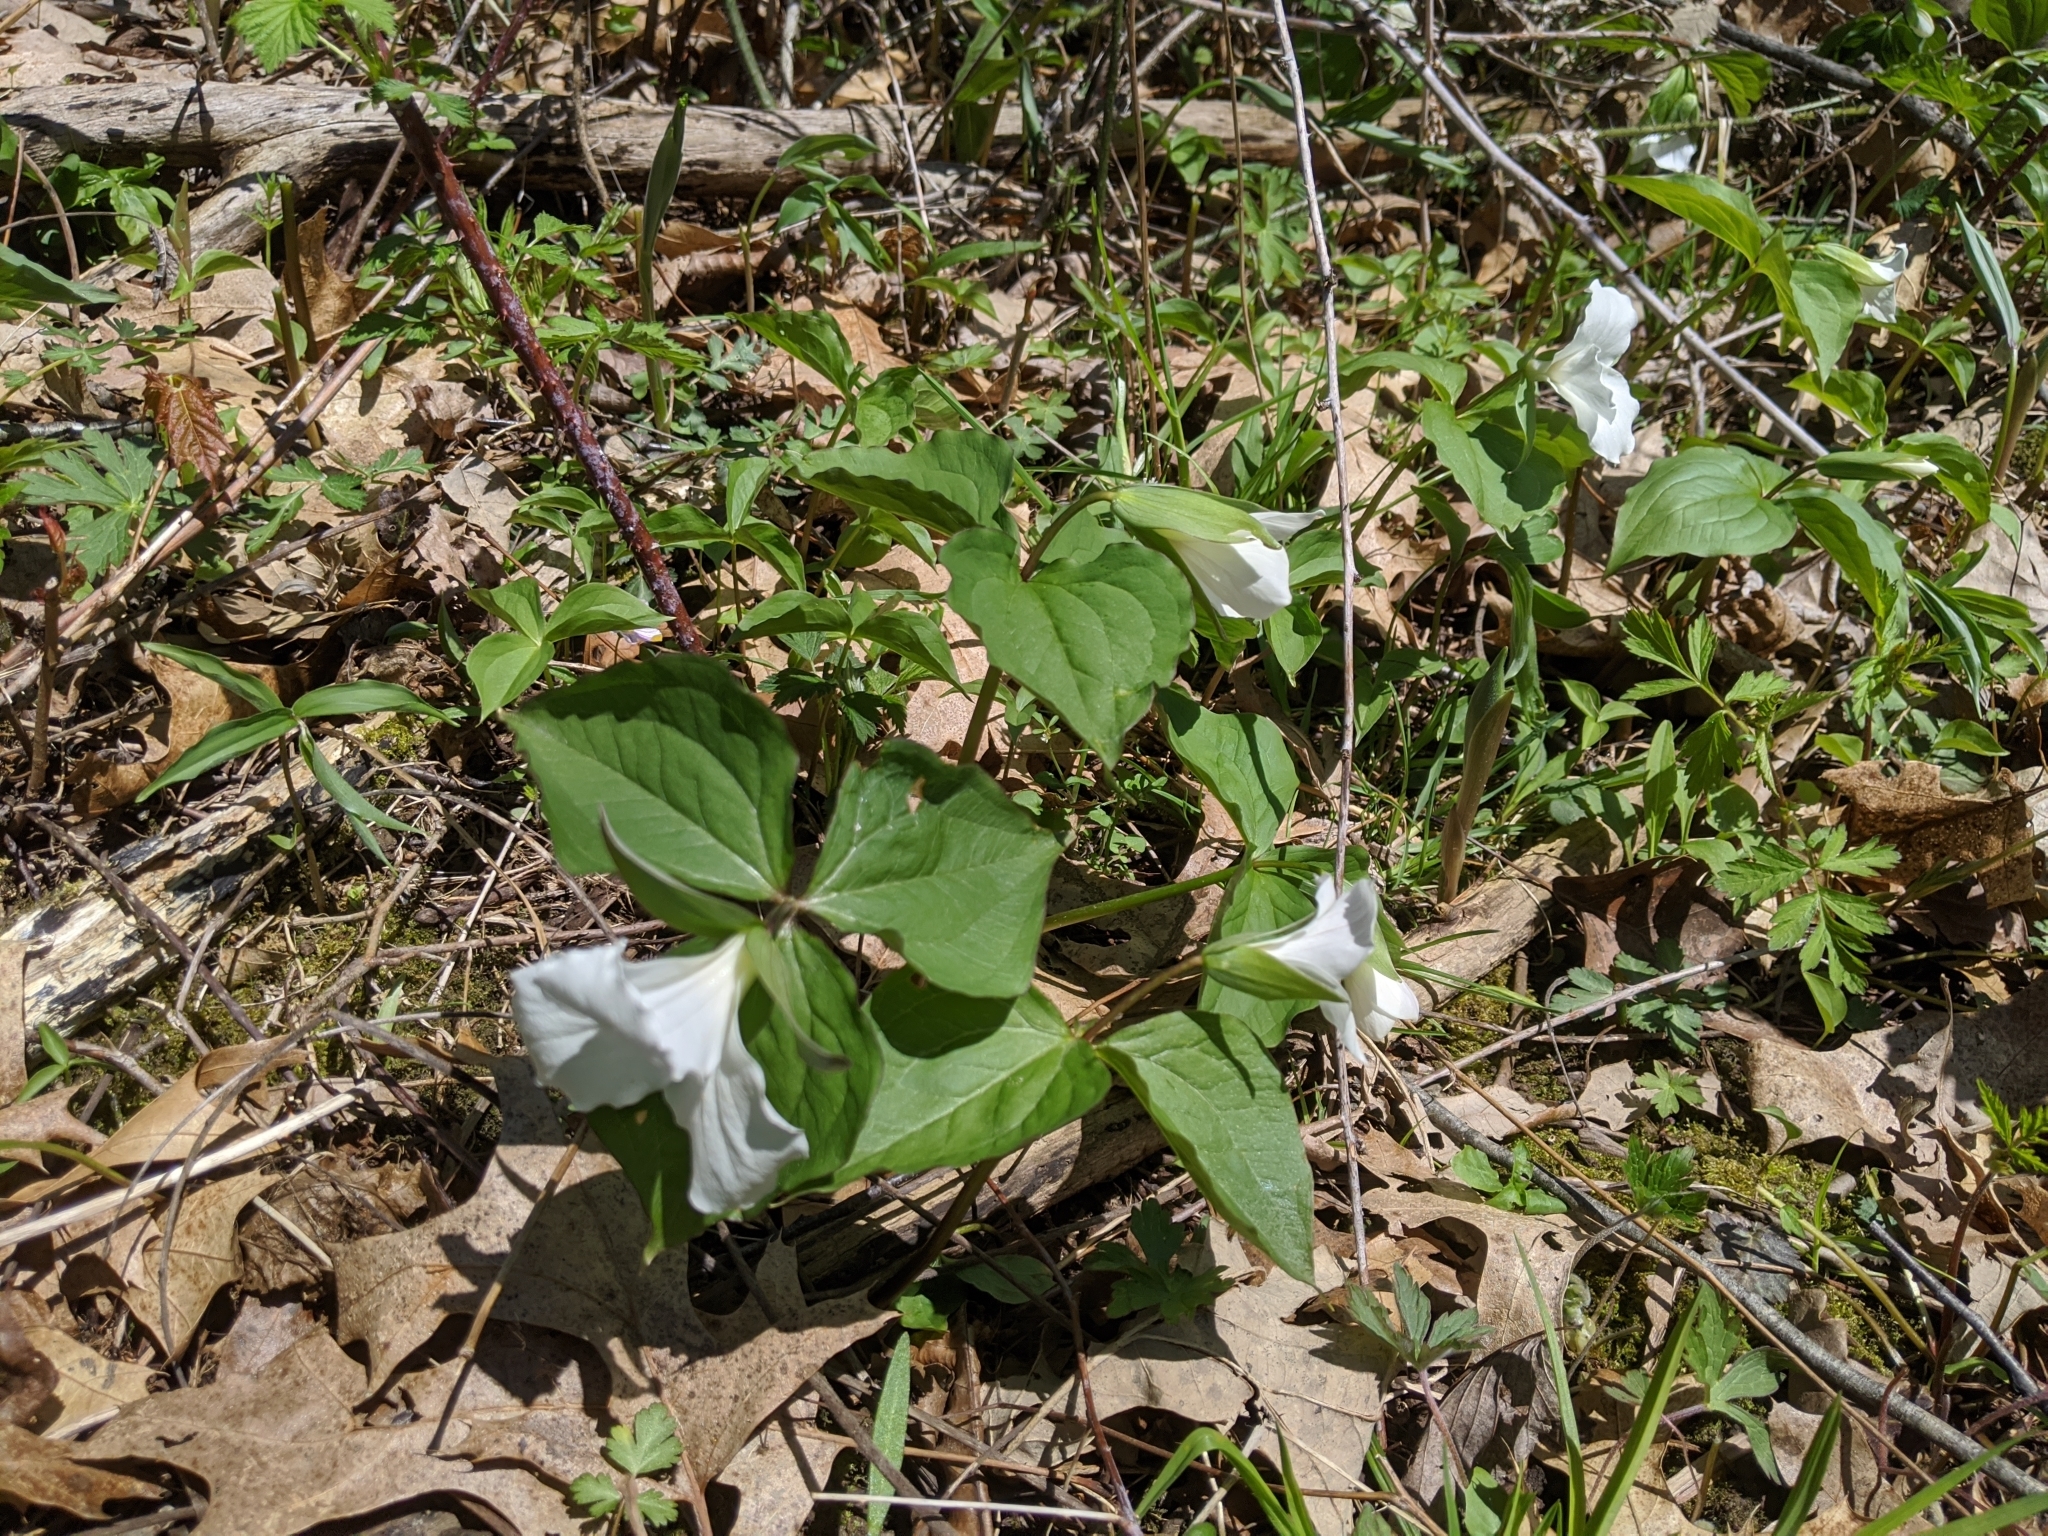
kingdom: Plantae
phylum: Tracheophyta
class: Liliopsida
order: Liliales
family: Melanthiaceae
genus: Trillium
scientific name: Trillium grandiflorum
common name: Great white trillium
